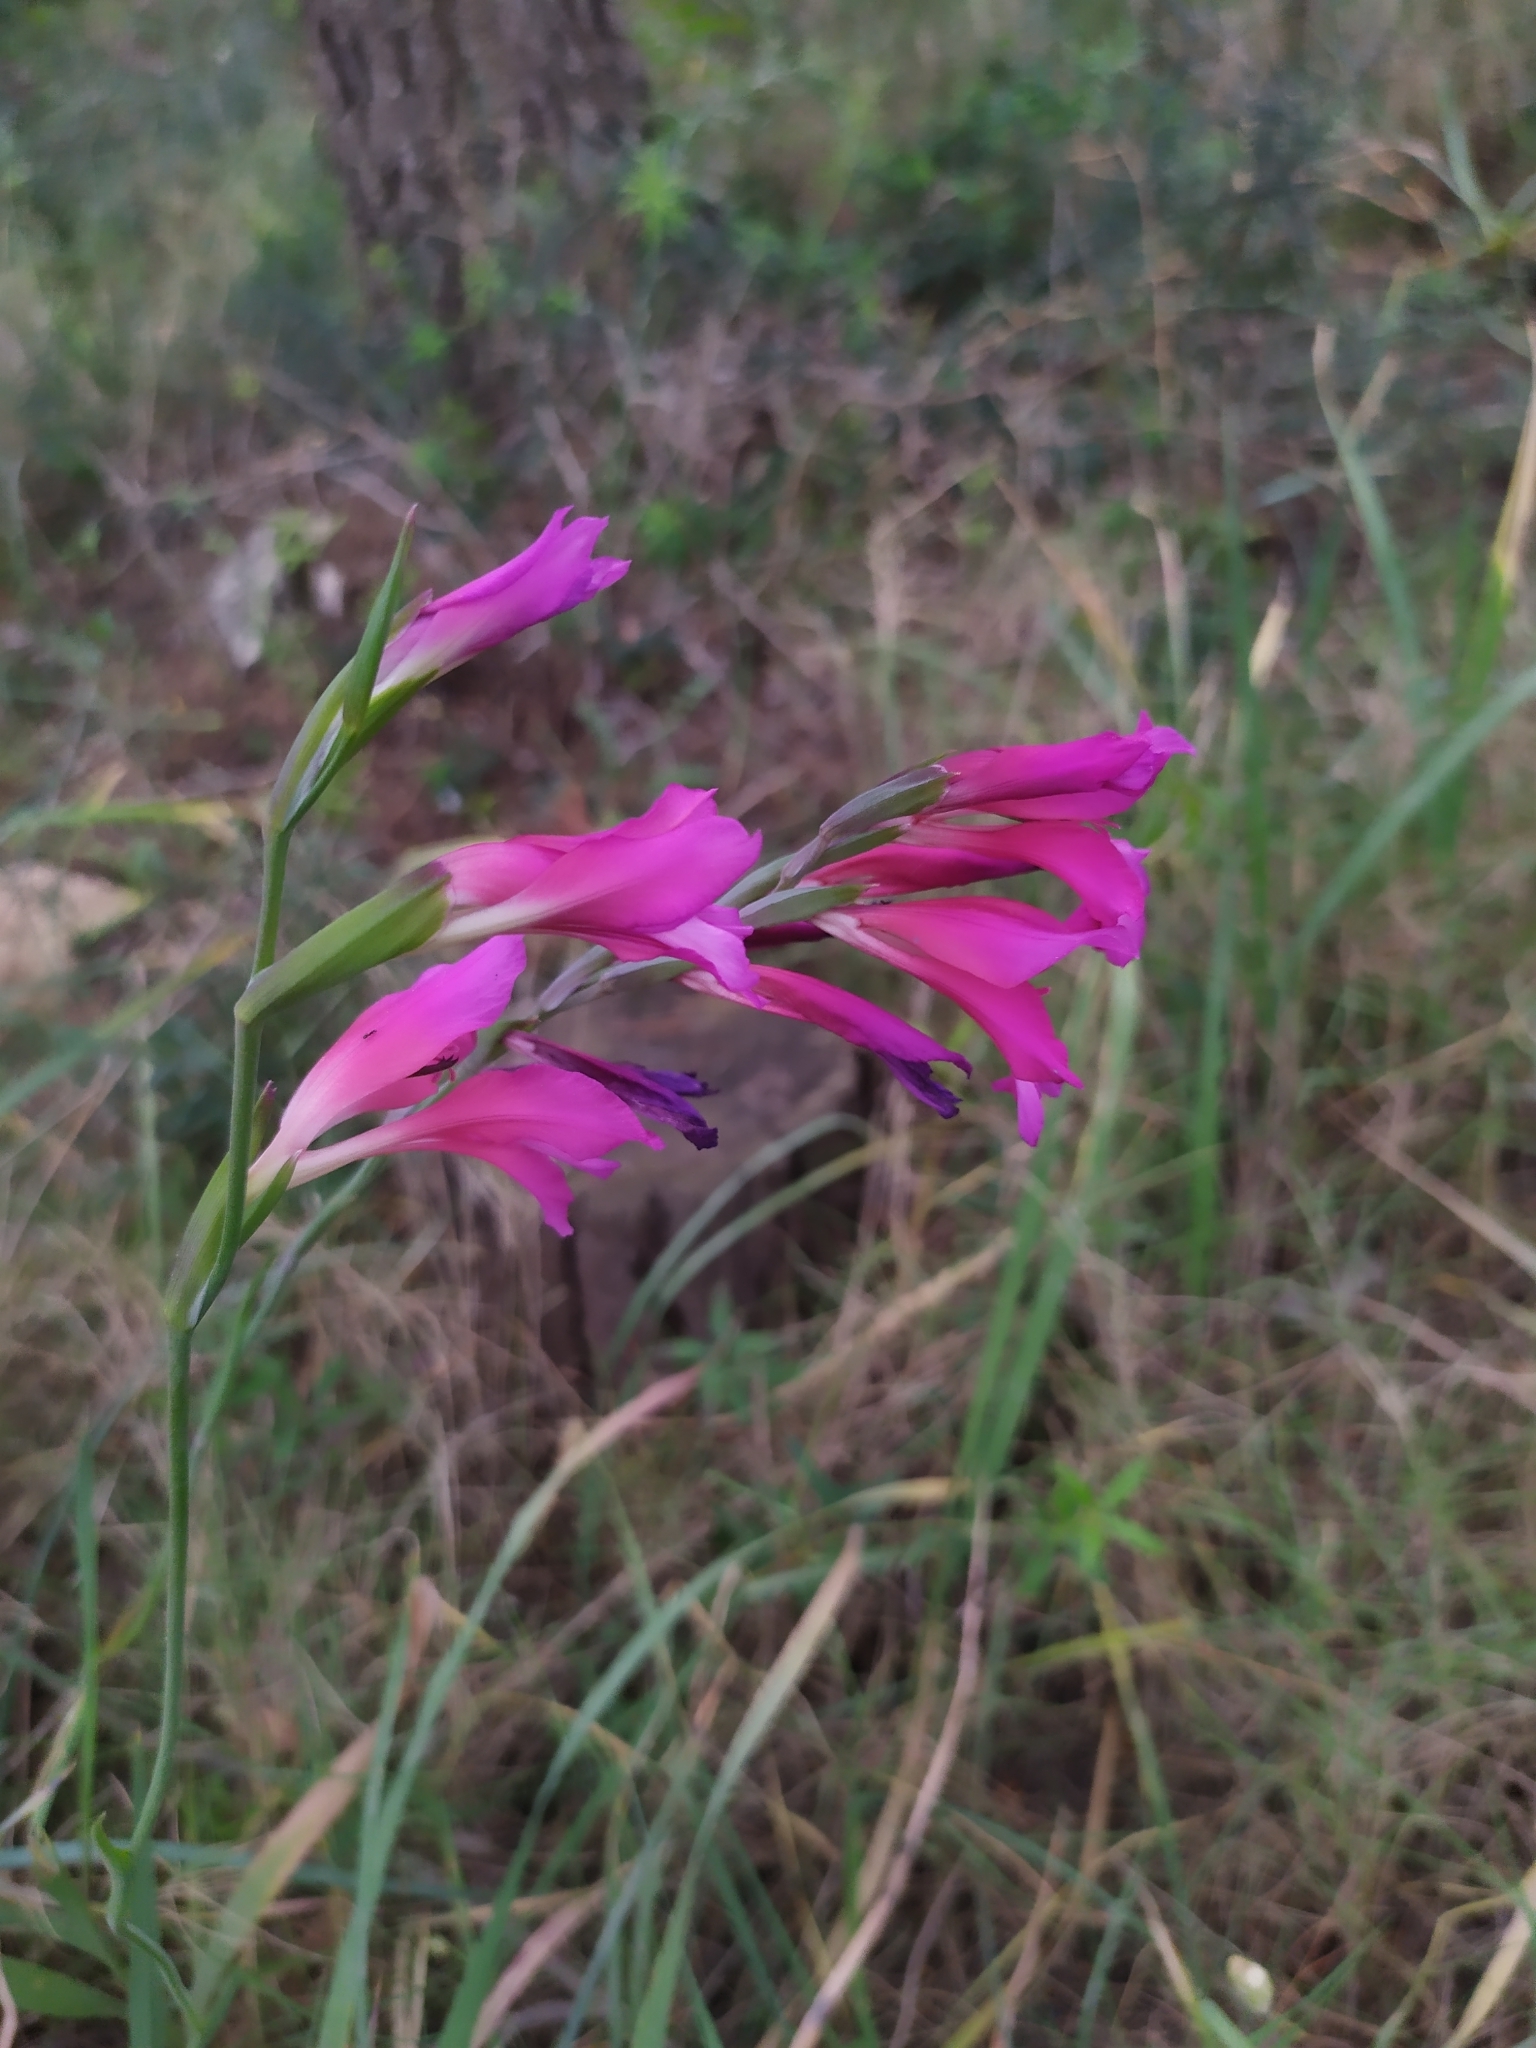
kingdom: Plantae
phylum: Tracheophyta
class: Liliopsida
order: Asparagales
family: Iridaceae
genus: Gladiolus
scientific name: Gladiolus italicus
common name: Field gladiolus
